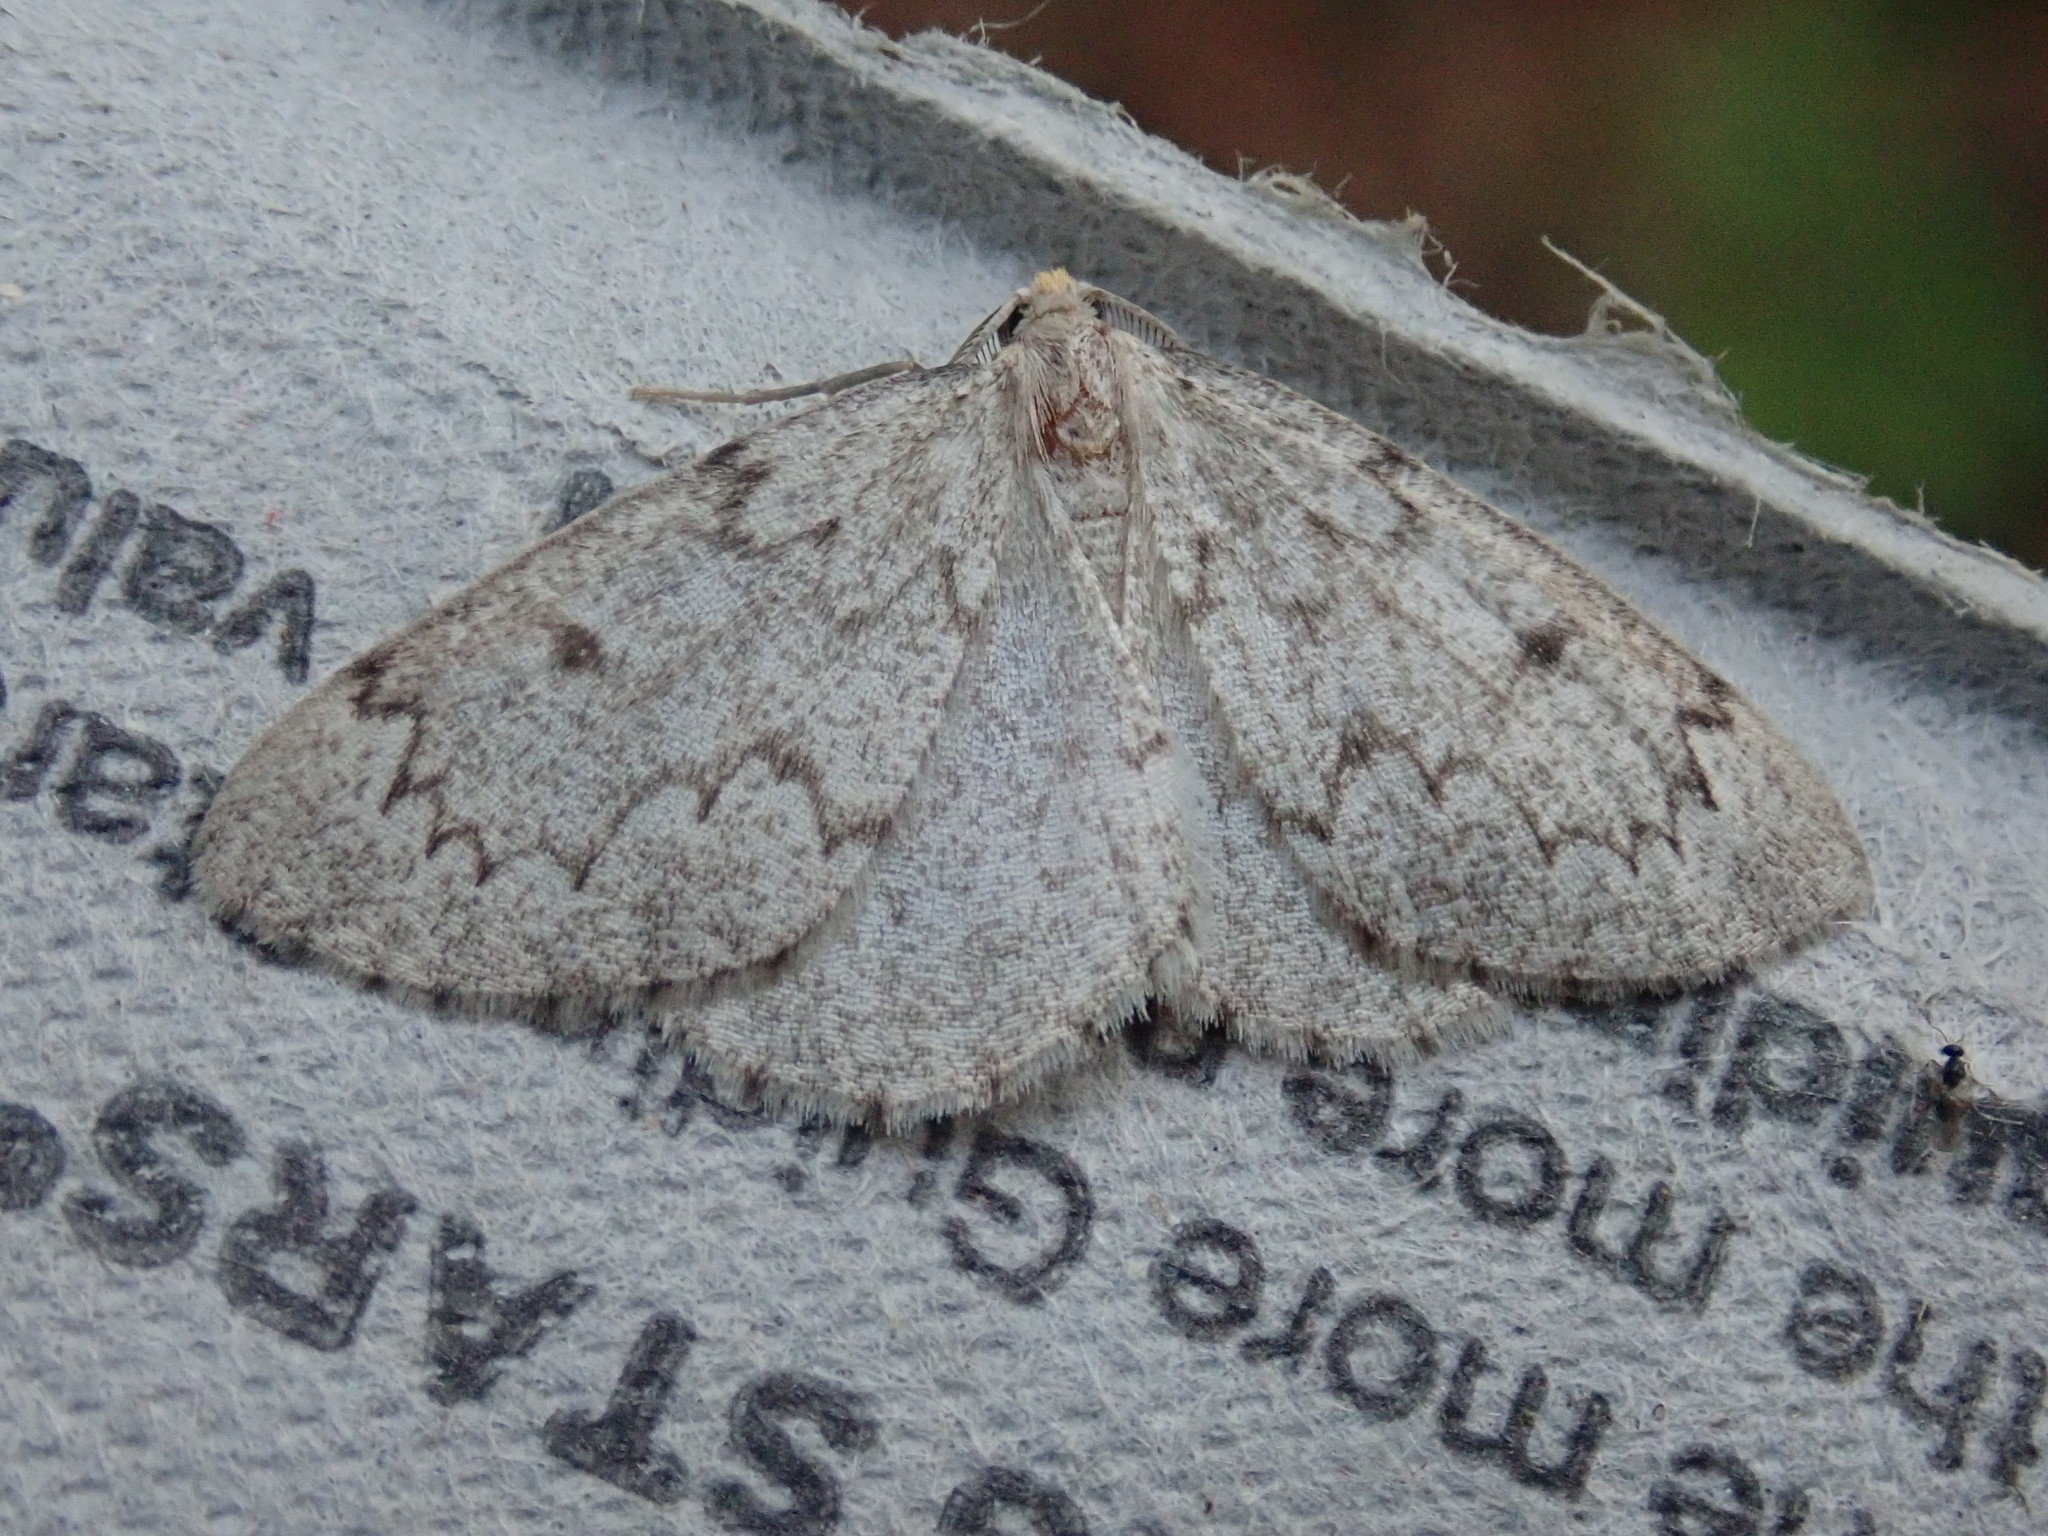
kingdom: Animalia
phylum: Arthropoda
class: Insecta
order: Lepidoptera
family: Geometridae
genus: Nepytia
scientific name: Nepytia canosaria
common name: False hemlock looper
